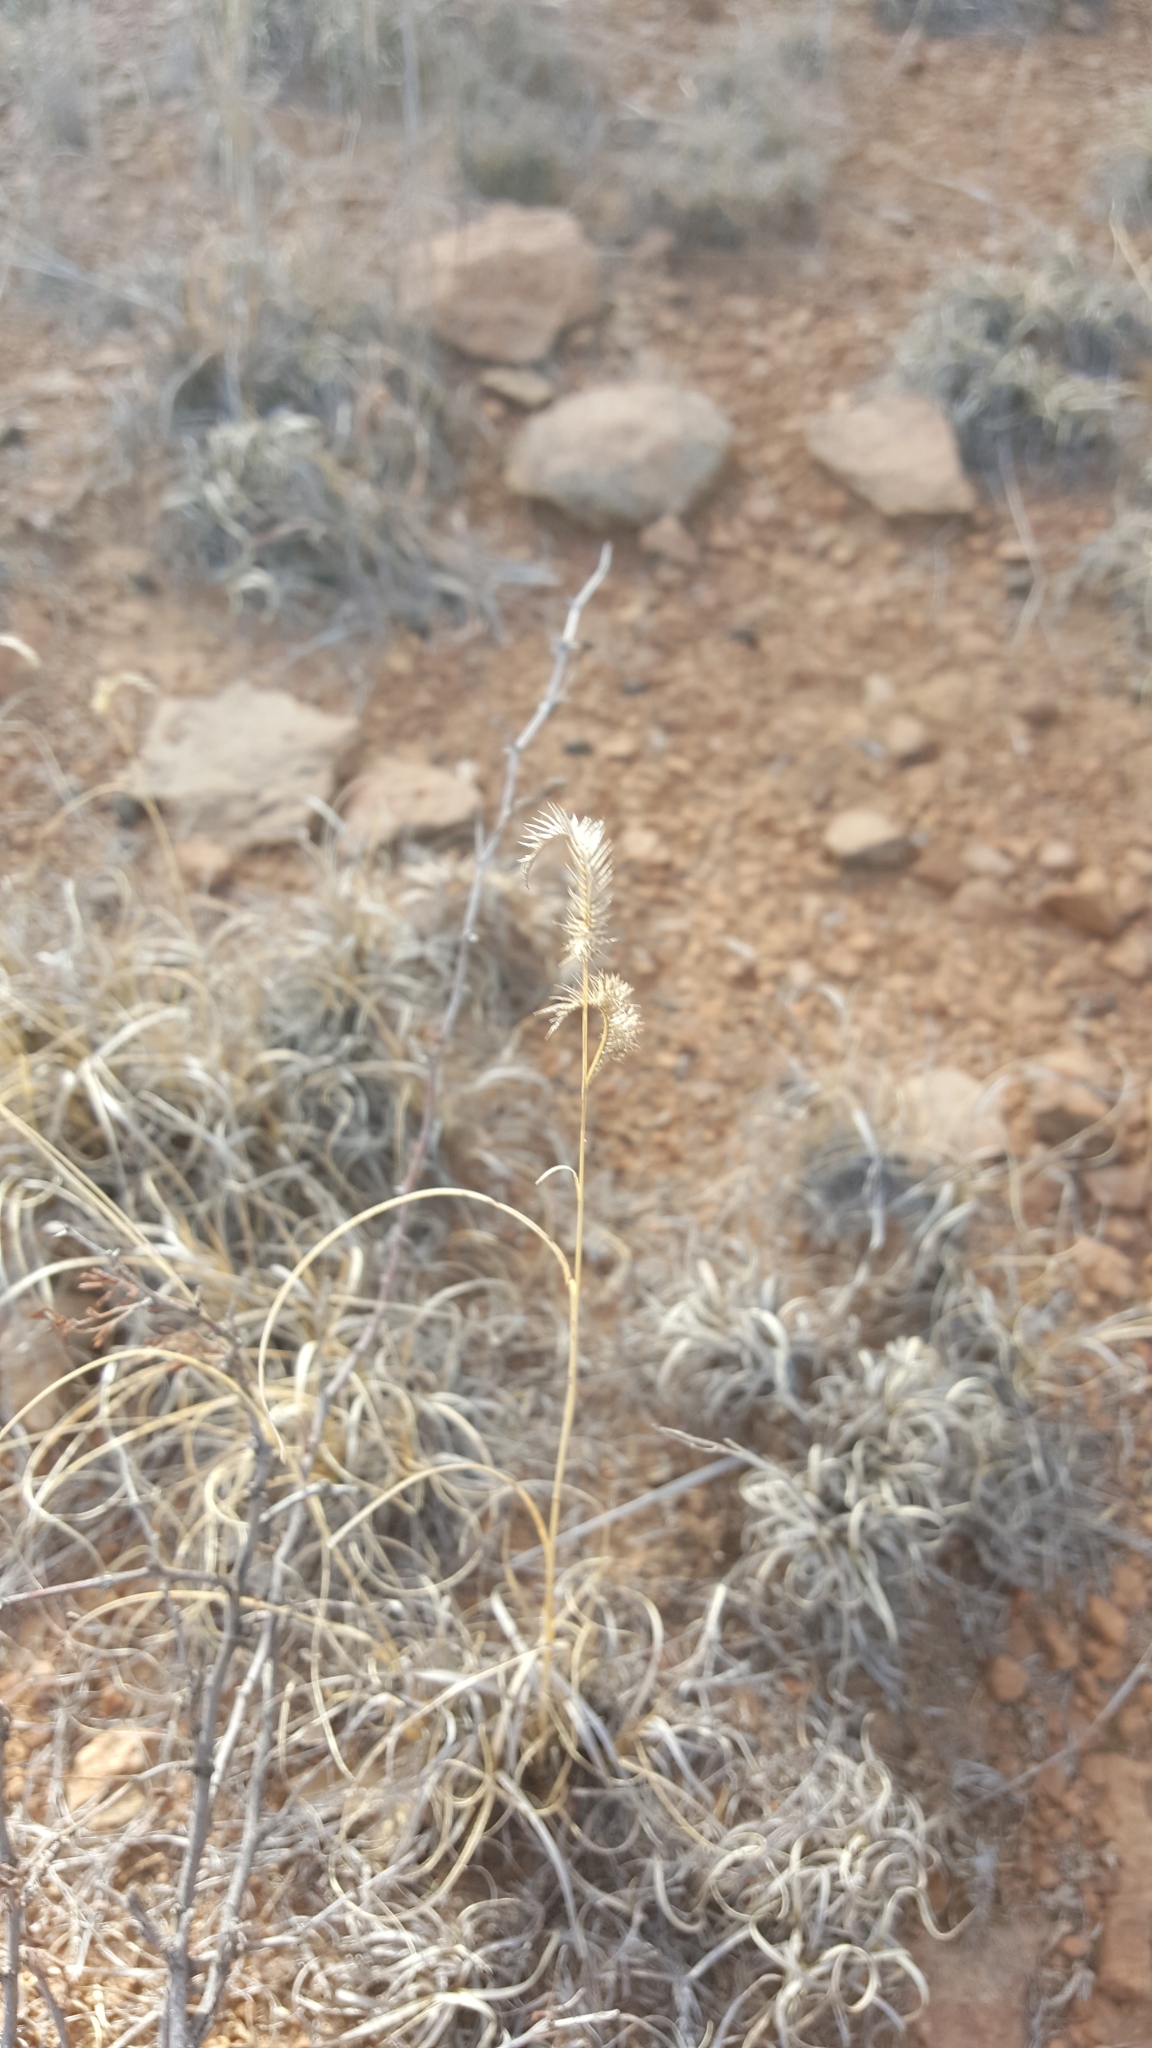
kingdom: Plantae
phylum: Tracheophyta
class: Liliopsida
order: Poales
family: Poaceae
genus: Bouteloua
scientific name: Bouteloua gracilis
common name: Blue grama
